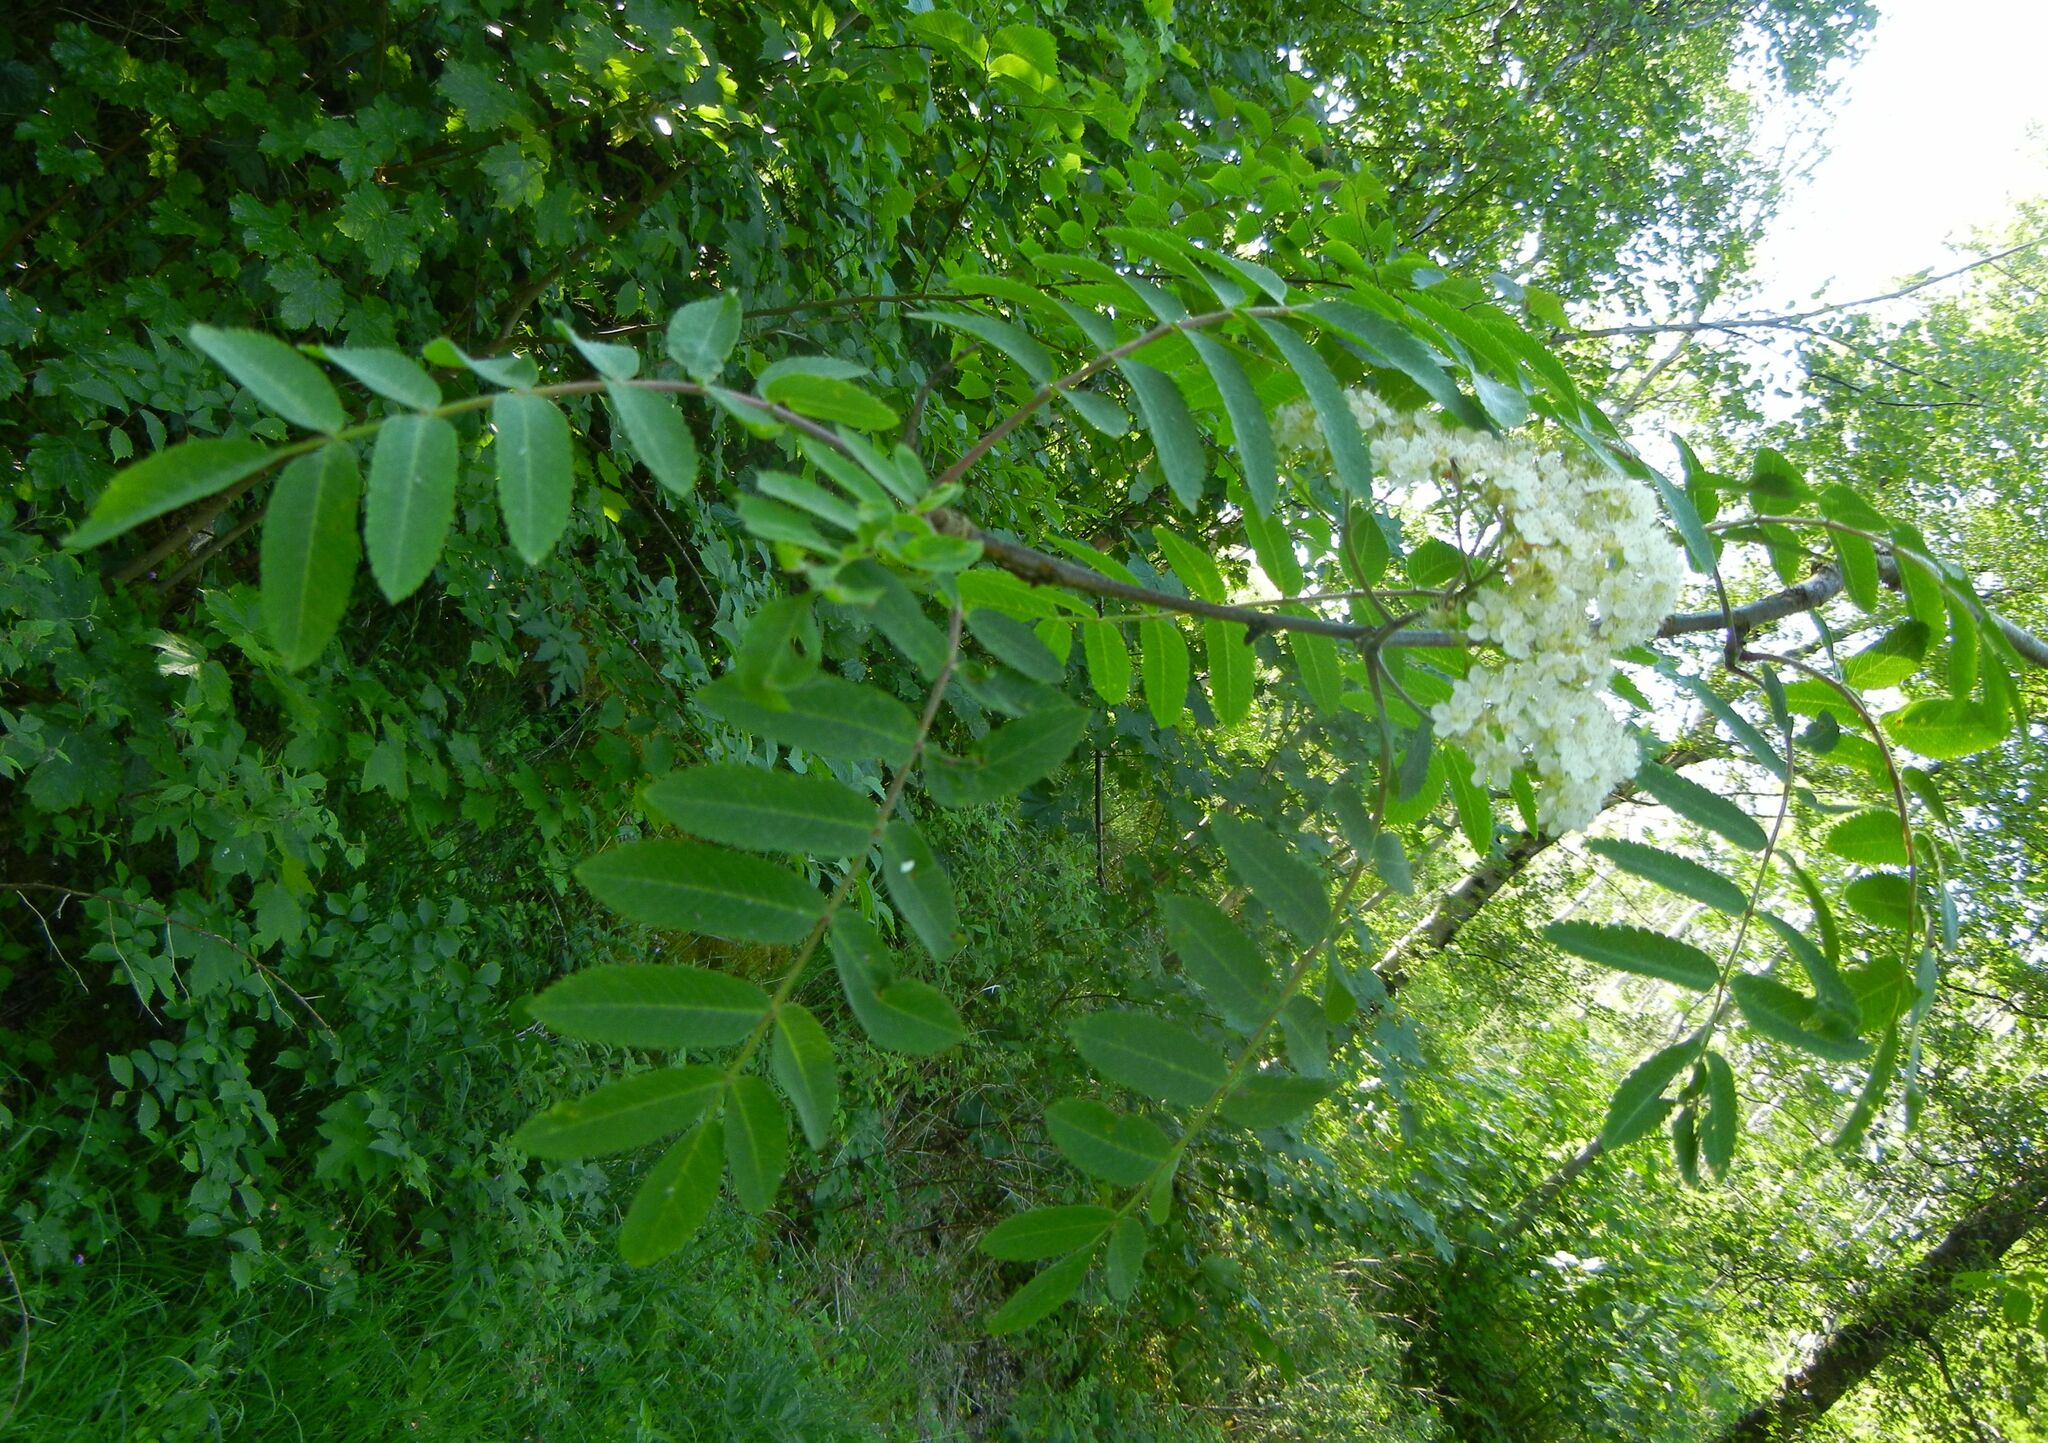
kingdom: Plantae
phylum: Tracheophyta
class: Magnoliopsida
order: Rosales
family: Rosaceae
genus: Sorbus
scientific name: Sorbus aucuparia
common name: Rowan
